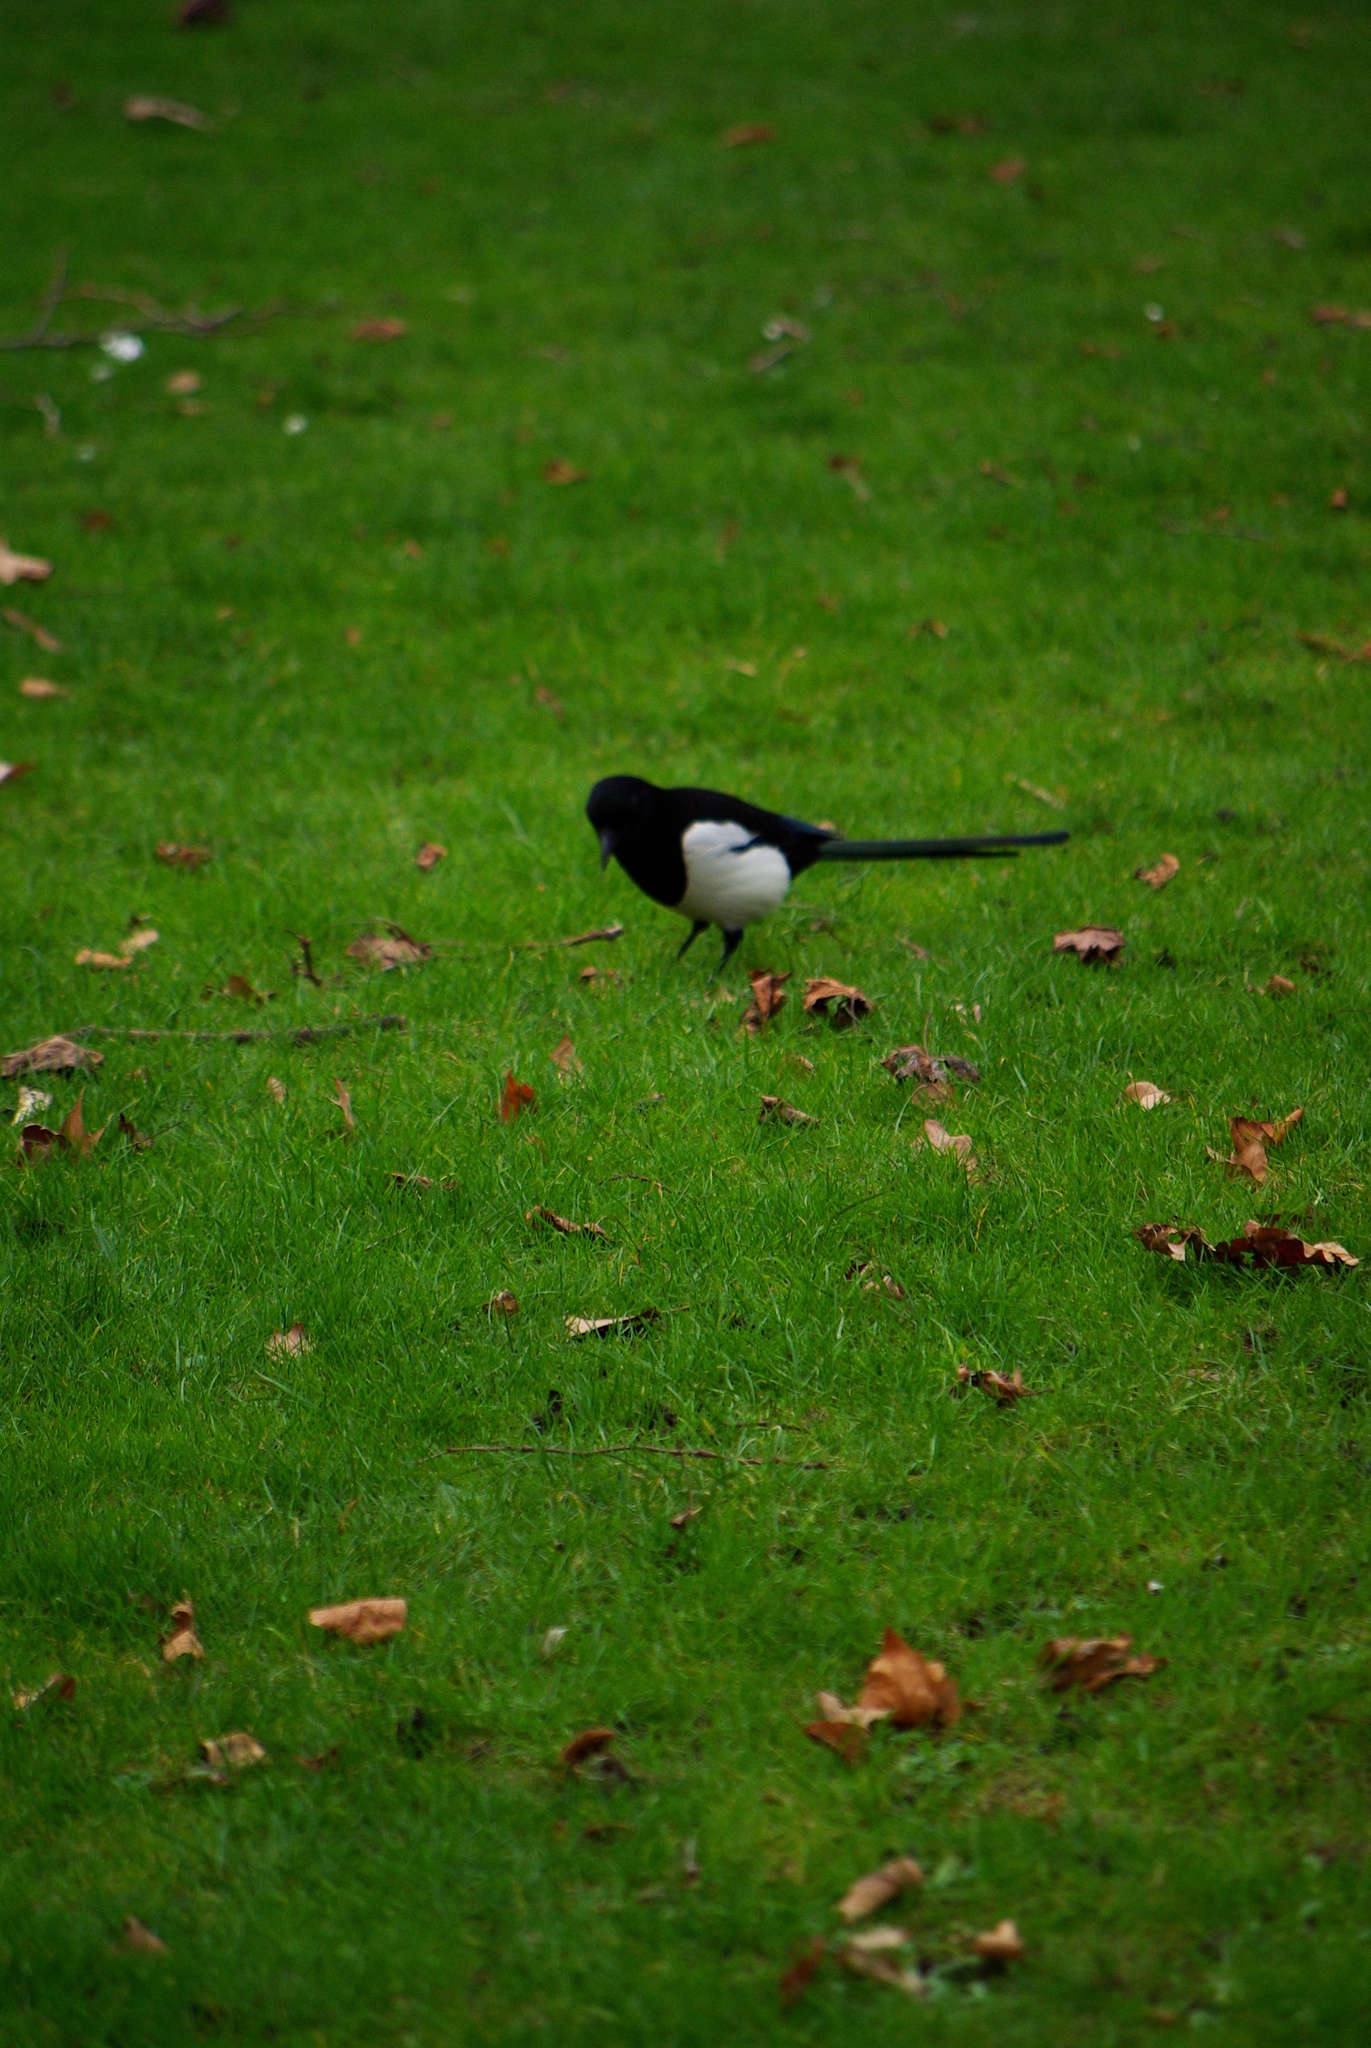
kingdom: Animalia
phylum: Chordata
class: Aves
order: Passeriformes
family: Corvidae
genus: Pica
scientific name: Pica pica
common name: Eurasian magpie
